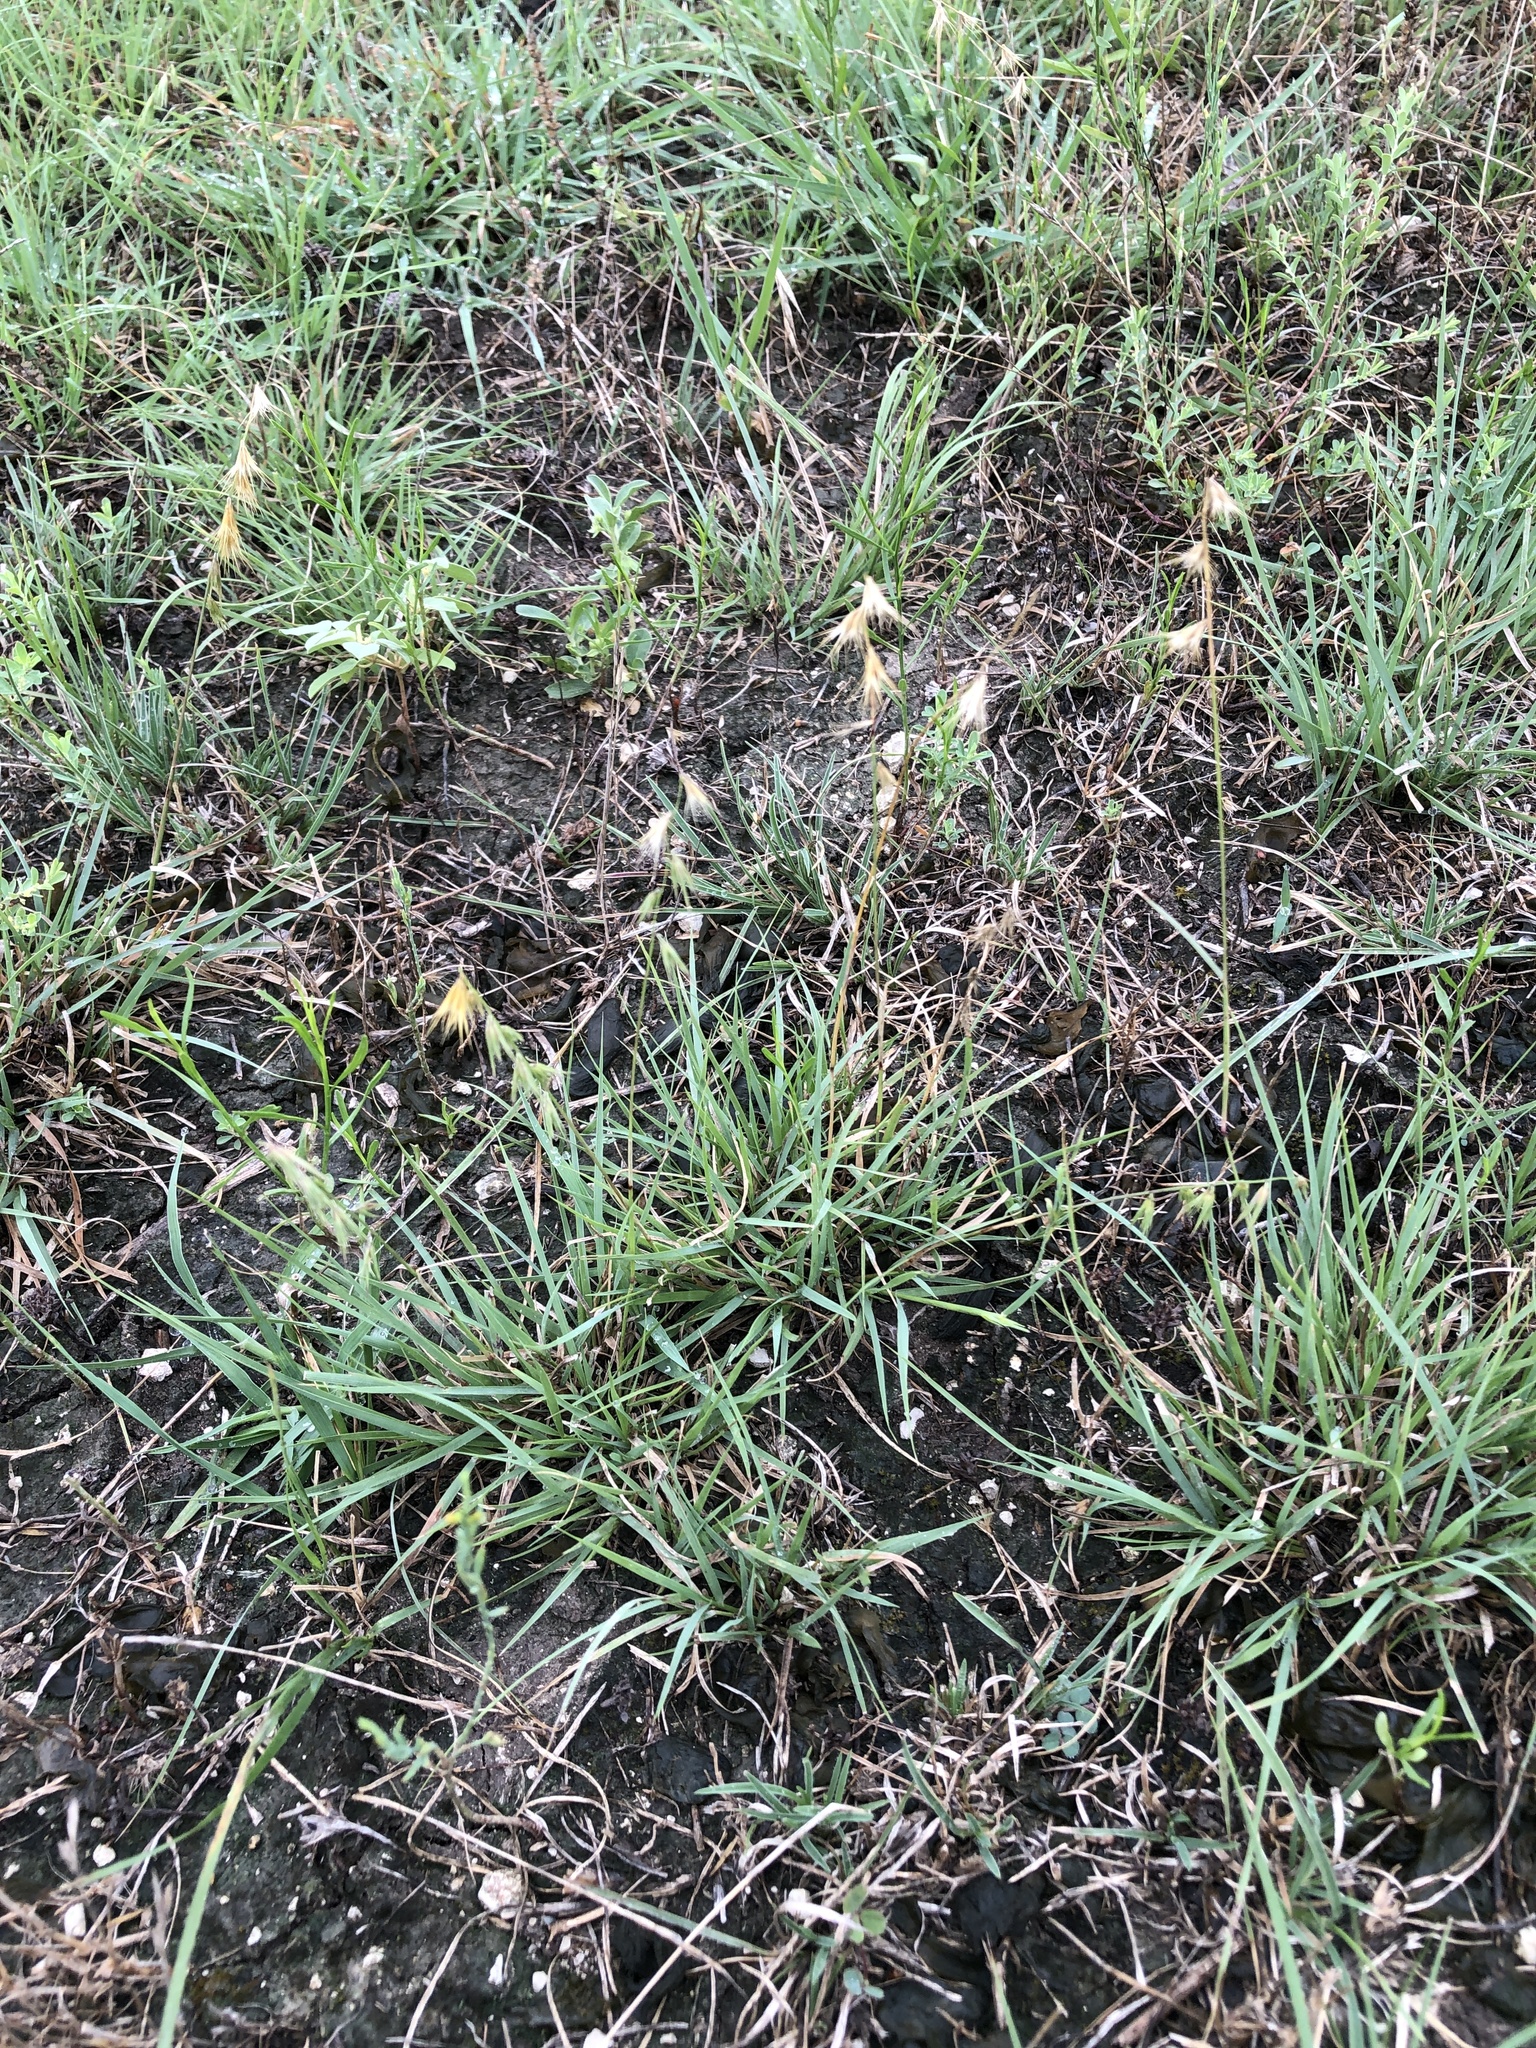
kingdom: Plantae
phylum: Tracheophyta
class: Liliopsida
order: Poales
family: Poaceae
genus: Bouteloua
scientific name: Bouteloua rigidiseta
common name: Texas grama
